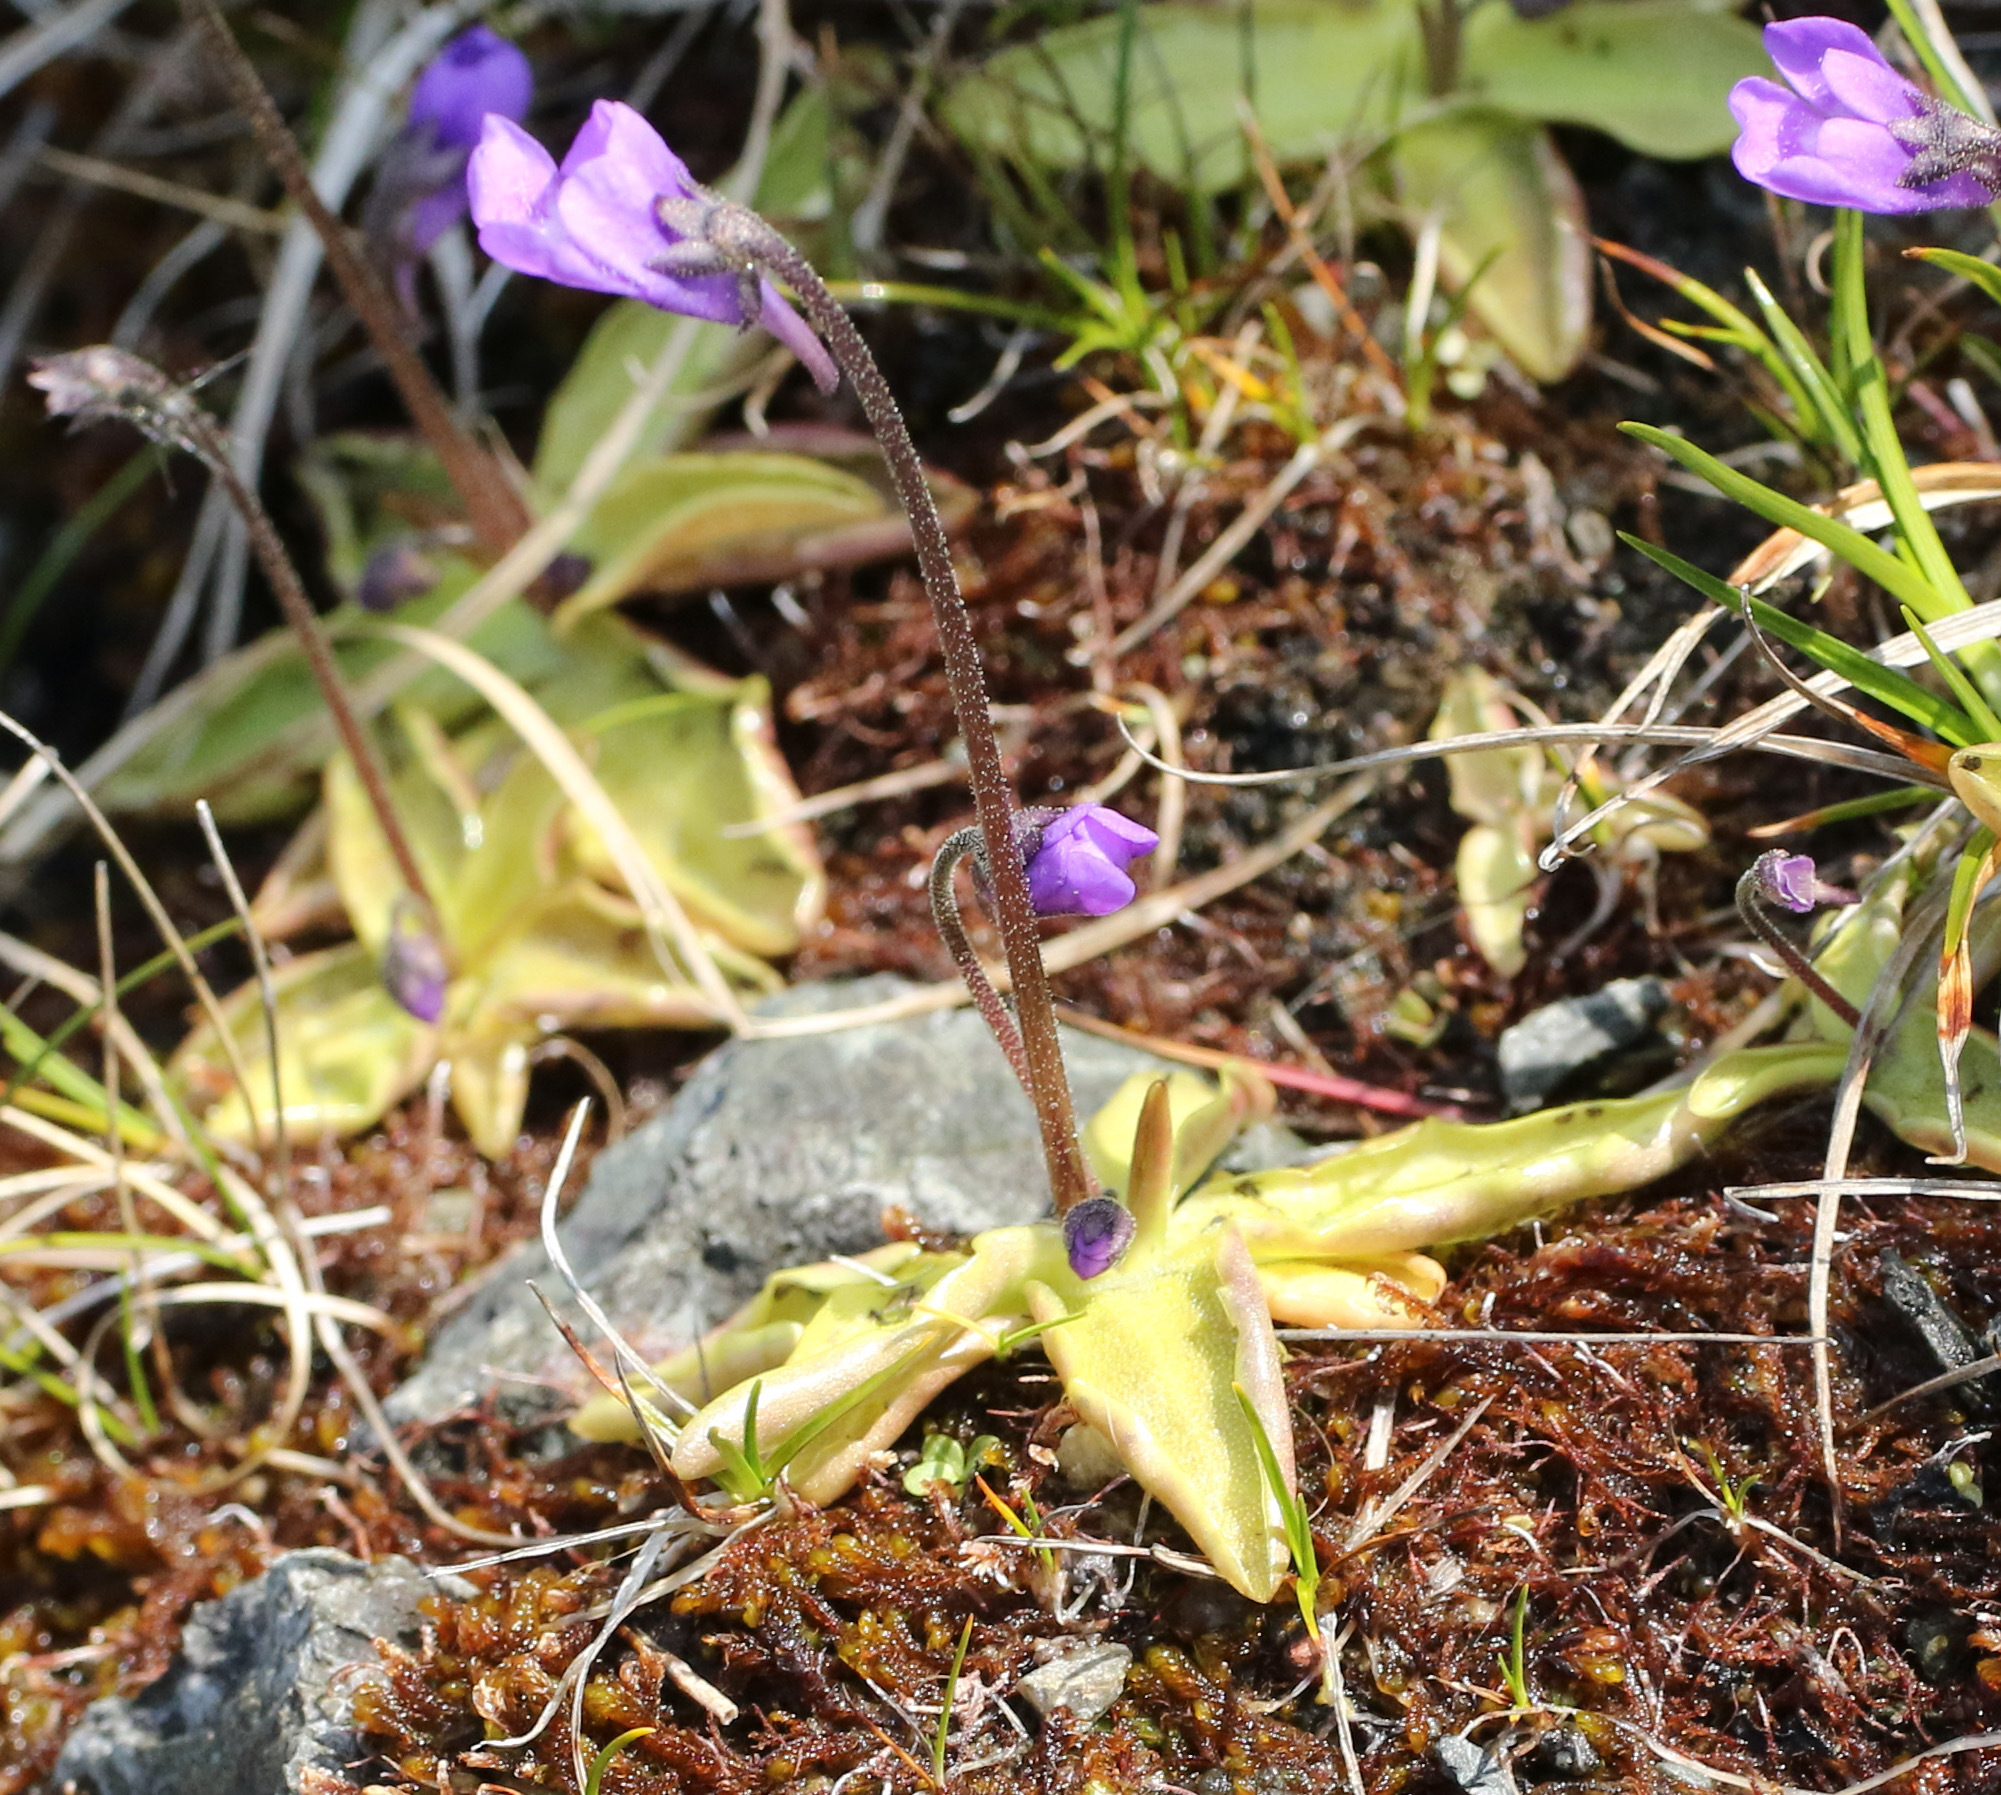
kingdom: Plantae
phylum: Tracheophyta
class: Magnoliopsida
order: Lamiales
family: Lentibulariaceae
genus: Pinguicula
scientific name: Pinguicula vulgaris
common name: Common butterwort
